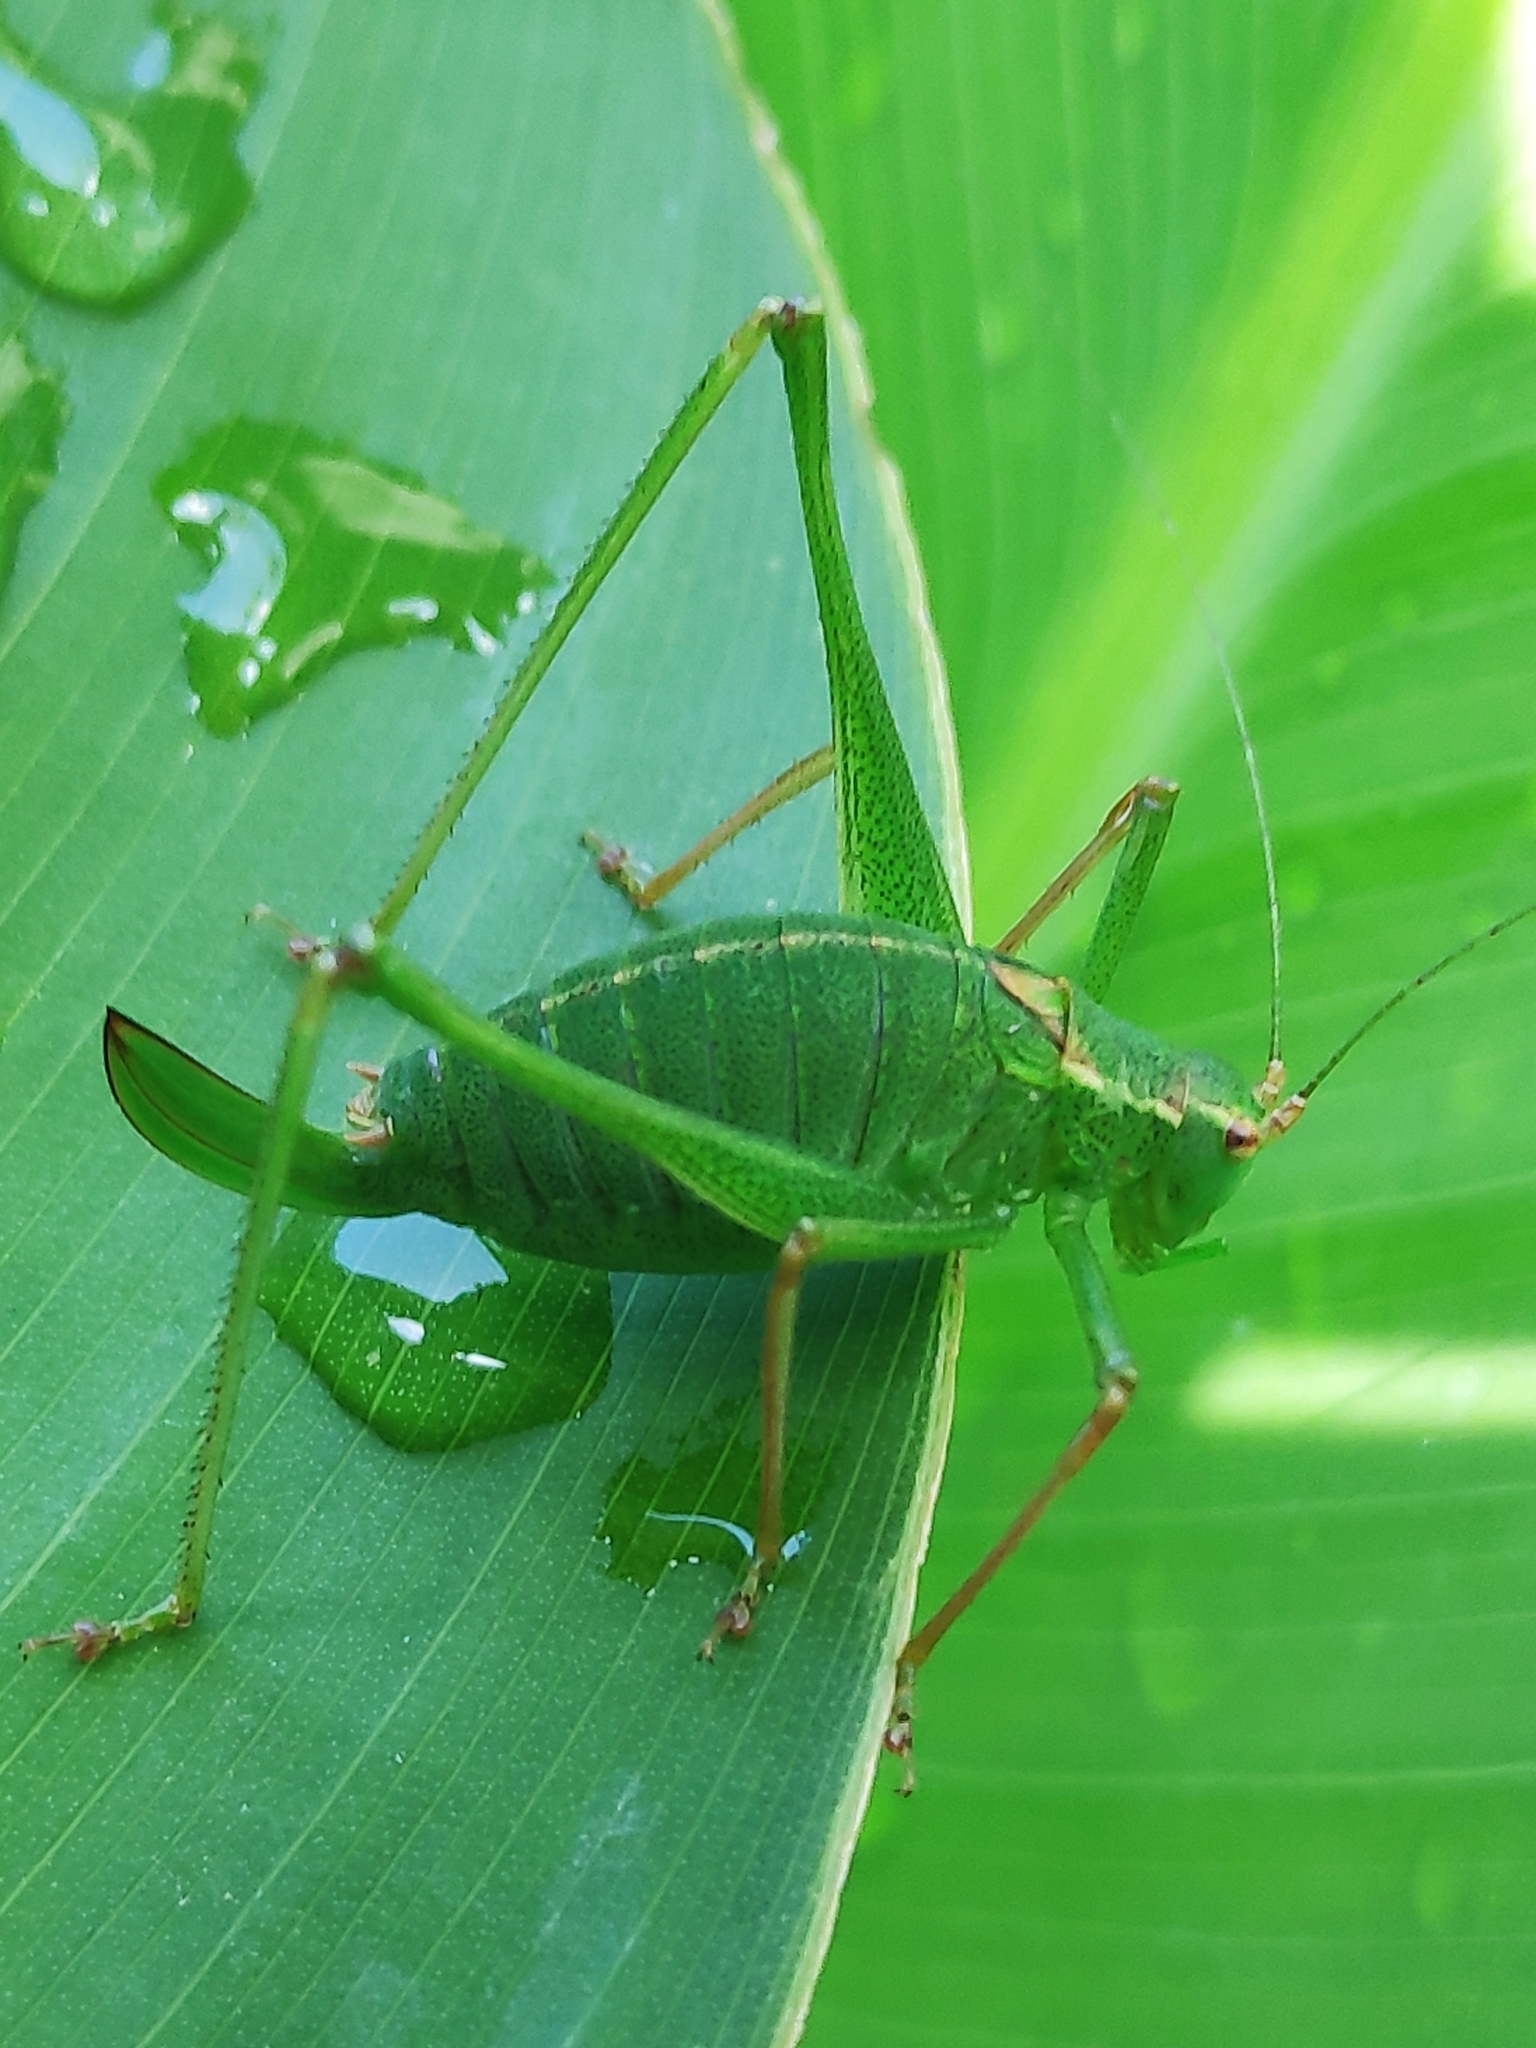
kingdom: Animalia
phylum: Arthropoda
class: Insecta
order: Orthoptera
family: Tettigoniidae
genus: Leptophyes
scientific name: Leptophyes punctatissima
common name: Speckled bush-cricket
